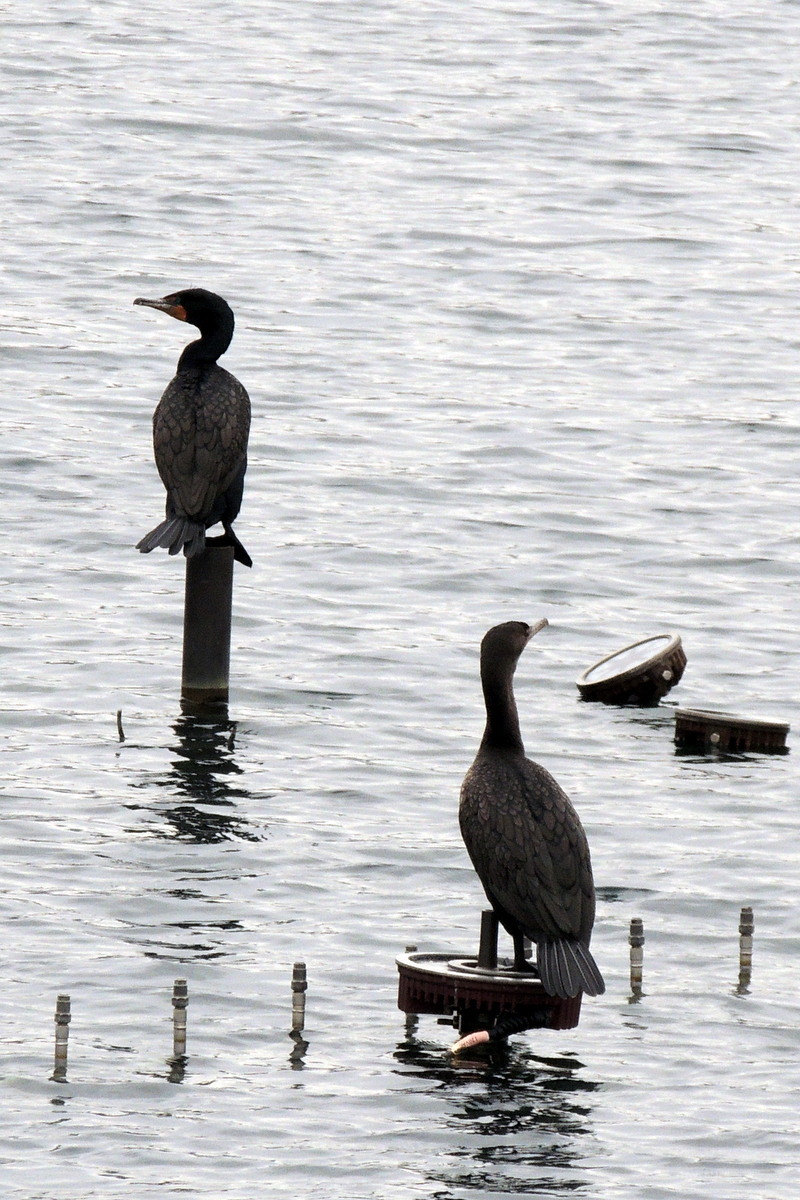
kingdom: Animalia
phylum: Chordata
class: Aves
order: Suliformes
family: Phalacrocoracidae
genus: Phalacrocorax
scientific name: Phalacrocorax auritus
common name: Double-crested cormorant
